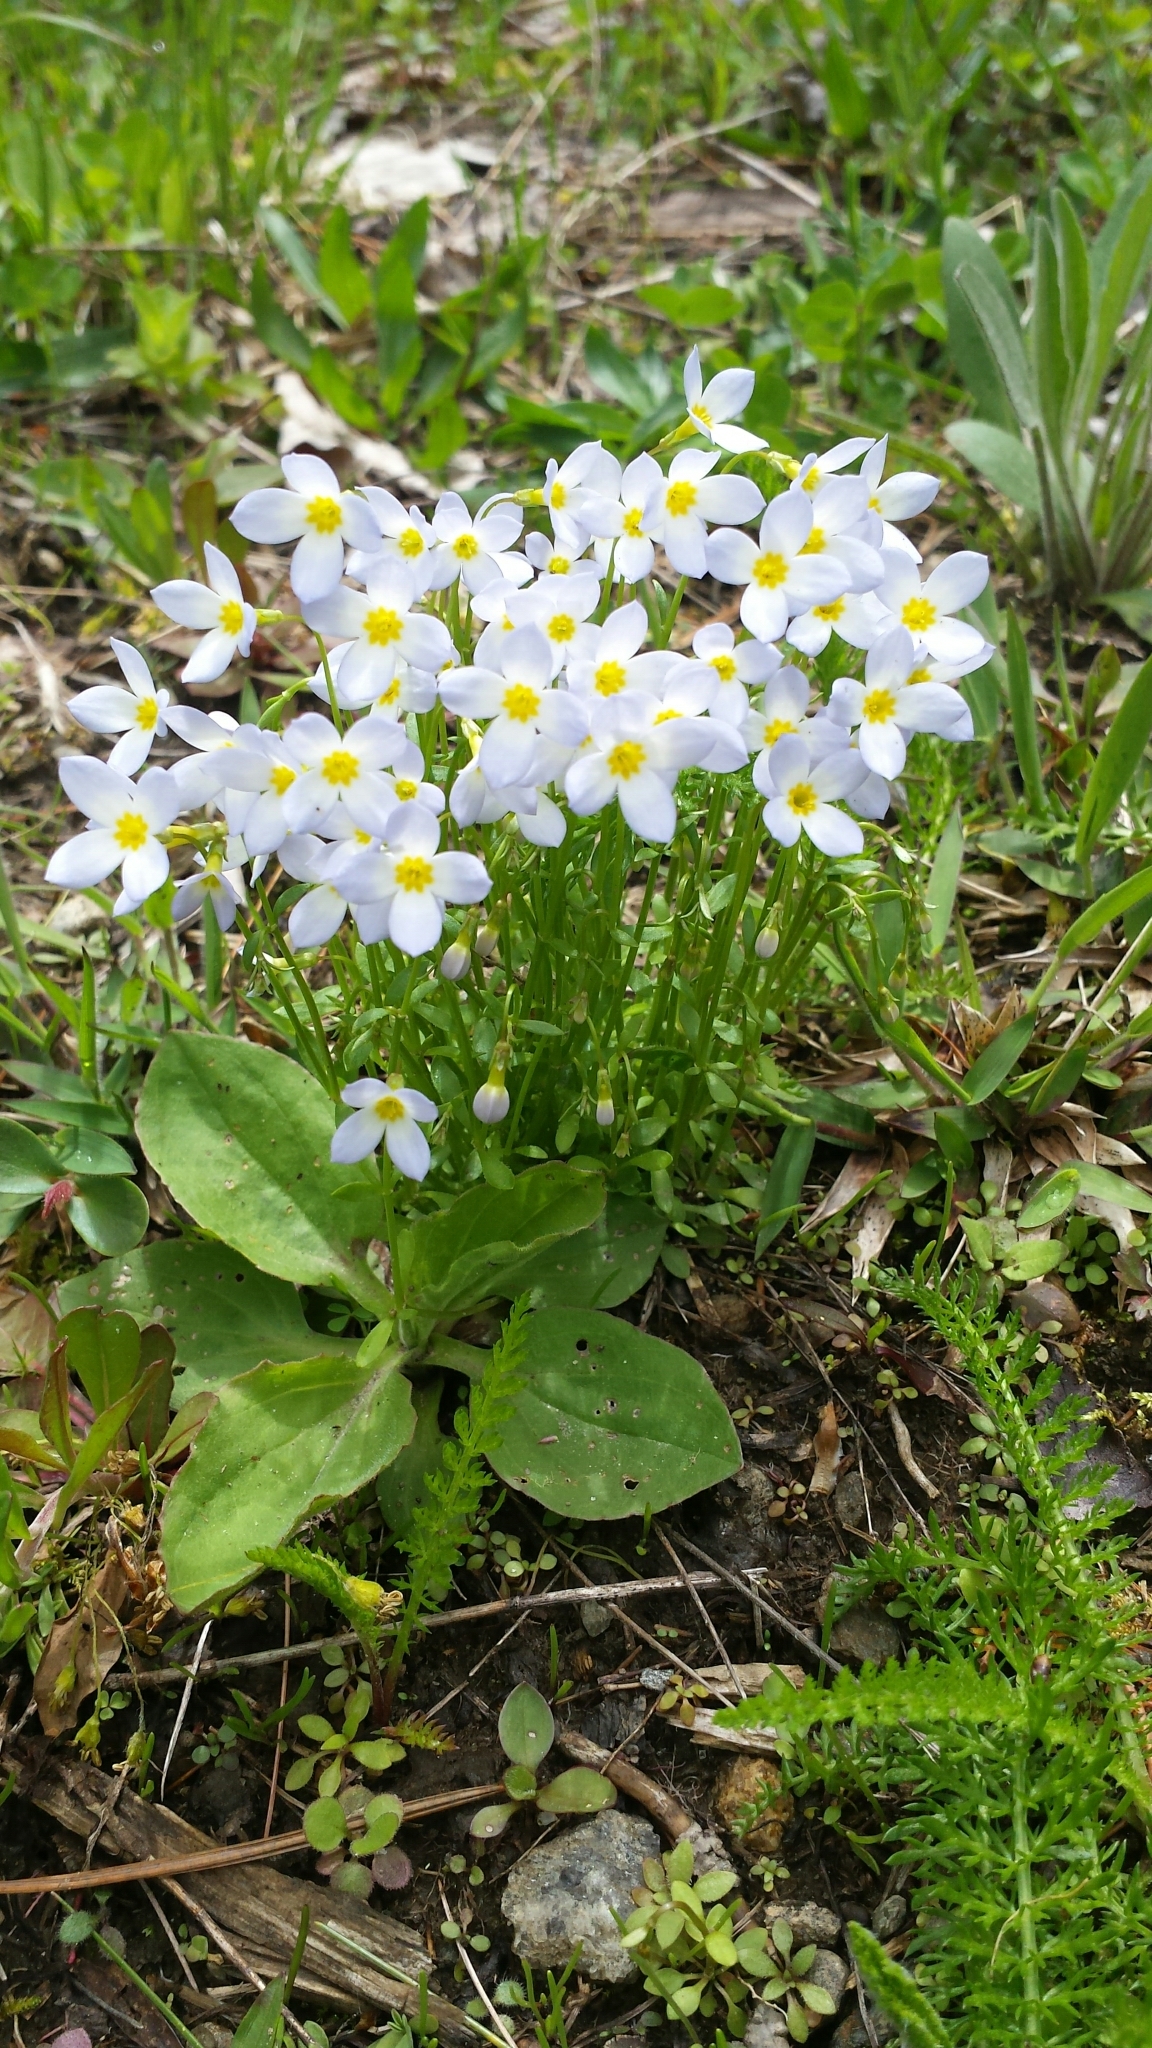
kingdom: Plantae
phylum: Tracheophyta
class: Magnoliopsida
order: Gentianales
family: Rubiaceae
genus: Houstonia
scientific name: Houstonia caerulea
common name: Bluets
